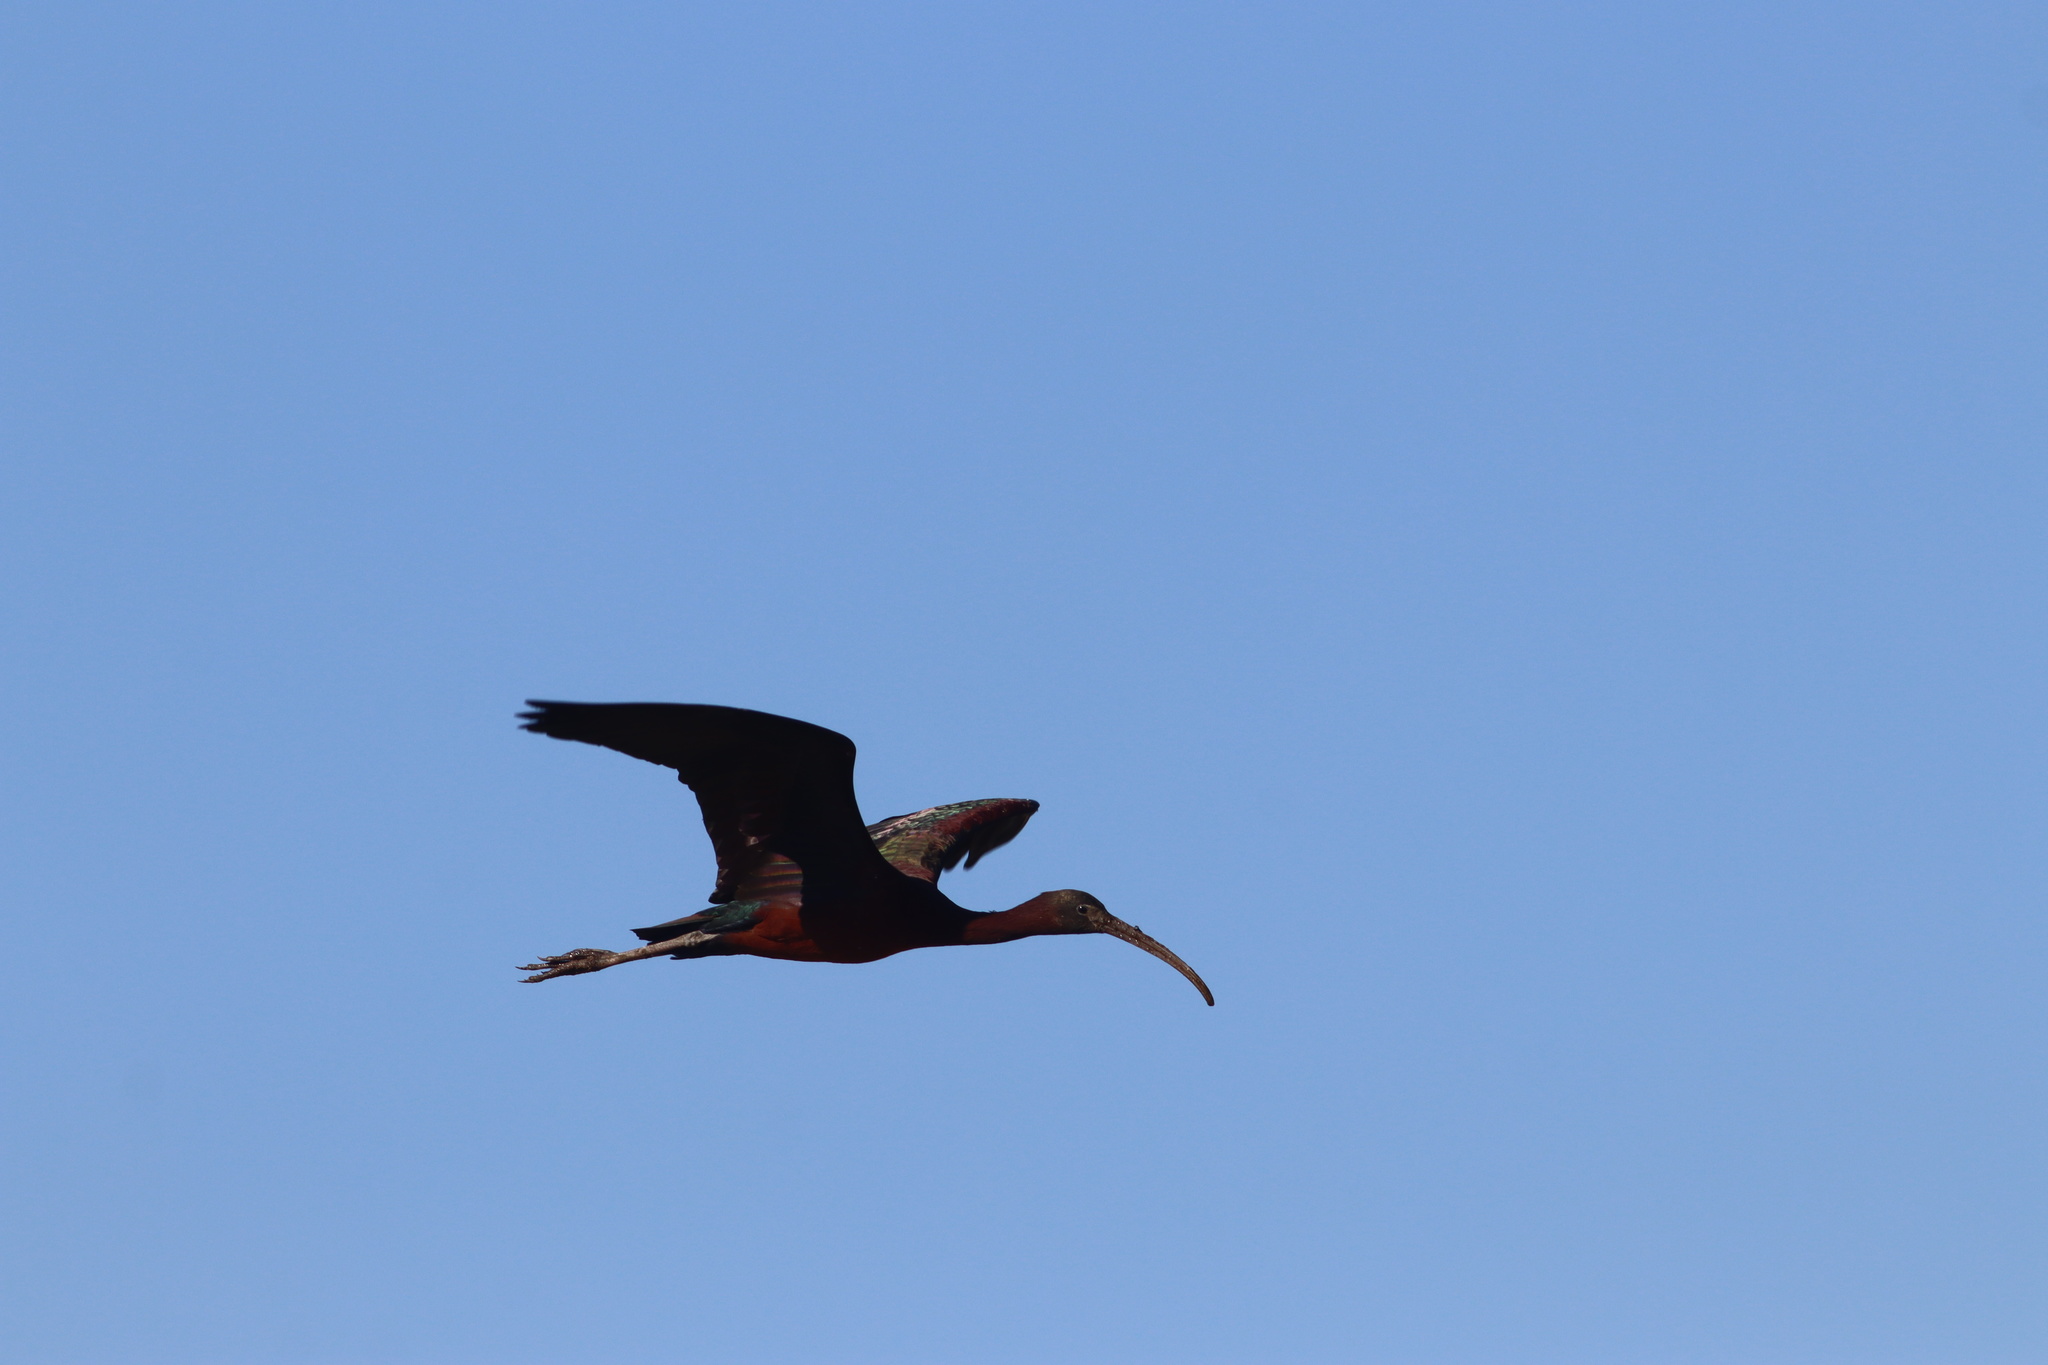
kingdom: Animalia
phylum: Chordata
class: Aves
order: Pelecaniformes
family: Threskiornithidae
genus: Plegadis
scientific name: Plegadis falcinellus
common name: Glossy ibis
